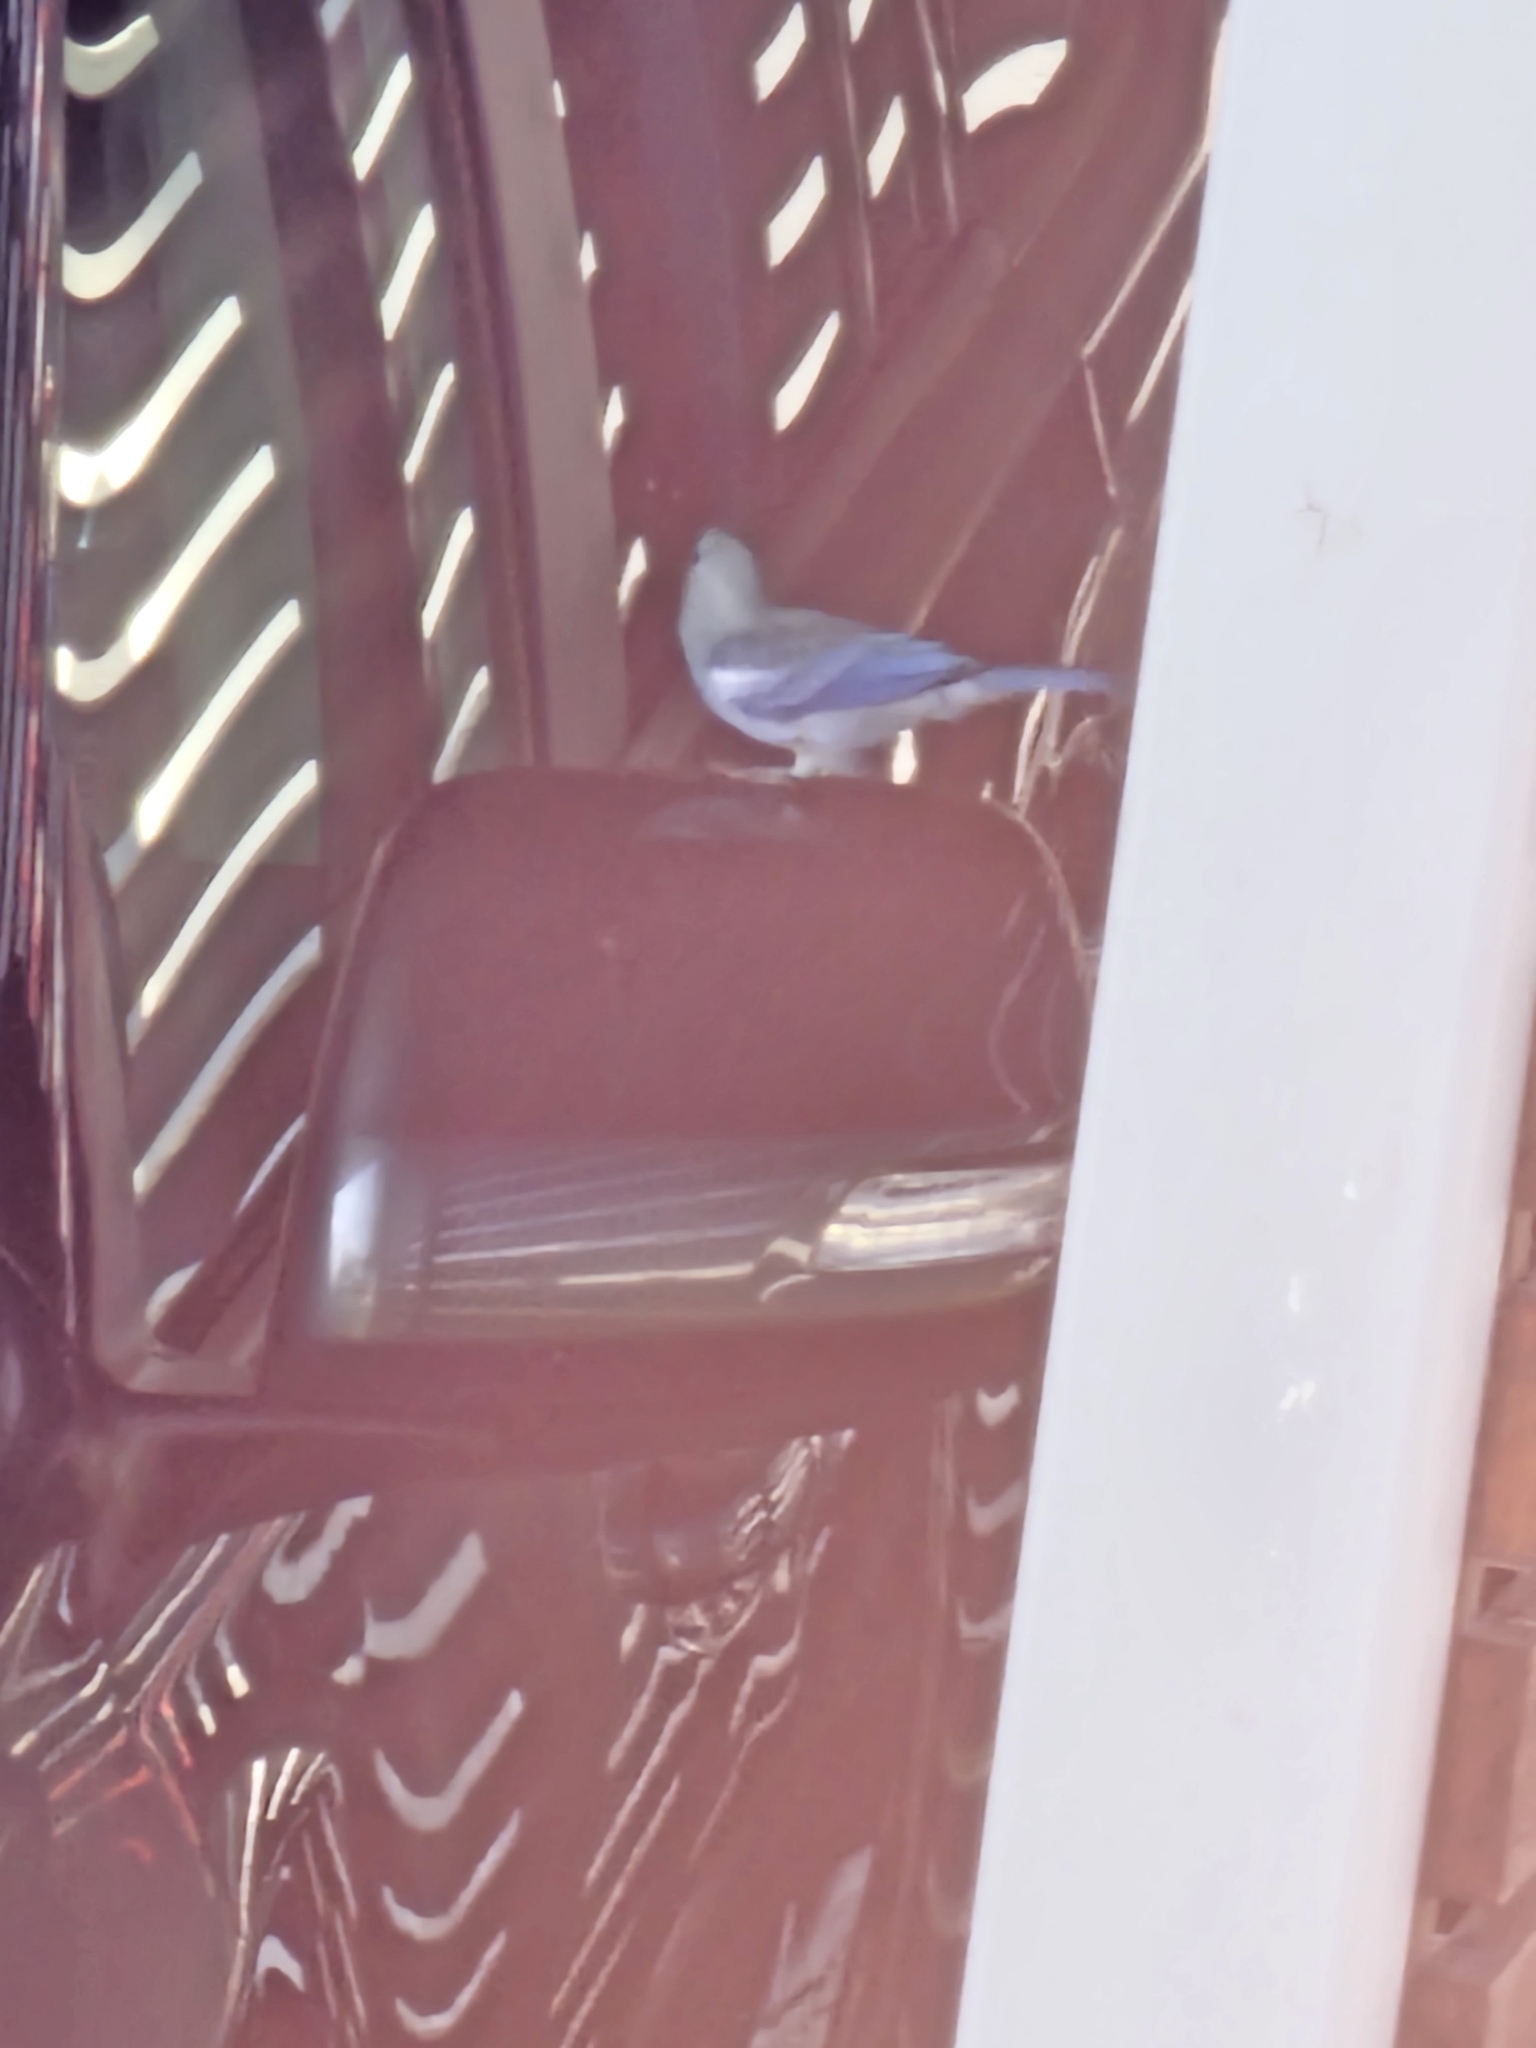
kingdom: Animalia
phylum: Chordata
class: Aves
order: Passeriformes
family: Thraupidae
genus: Thraupis
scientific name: Thraupis episcopus
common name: Blue-grey tanager
